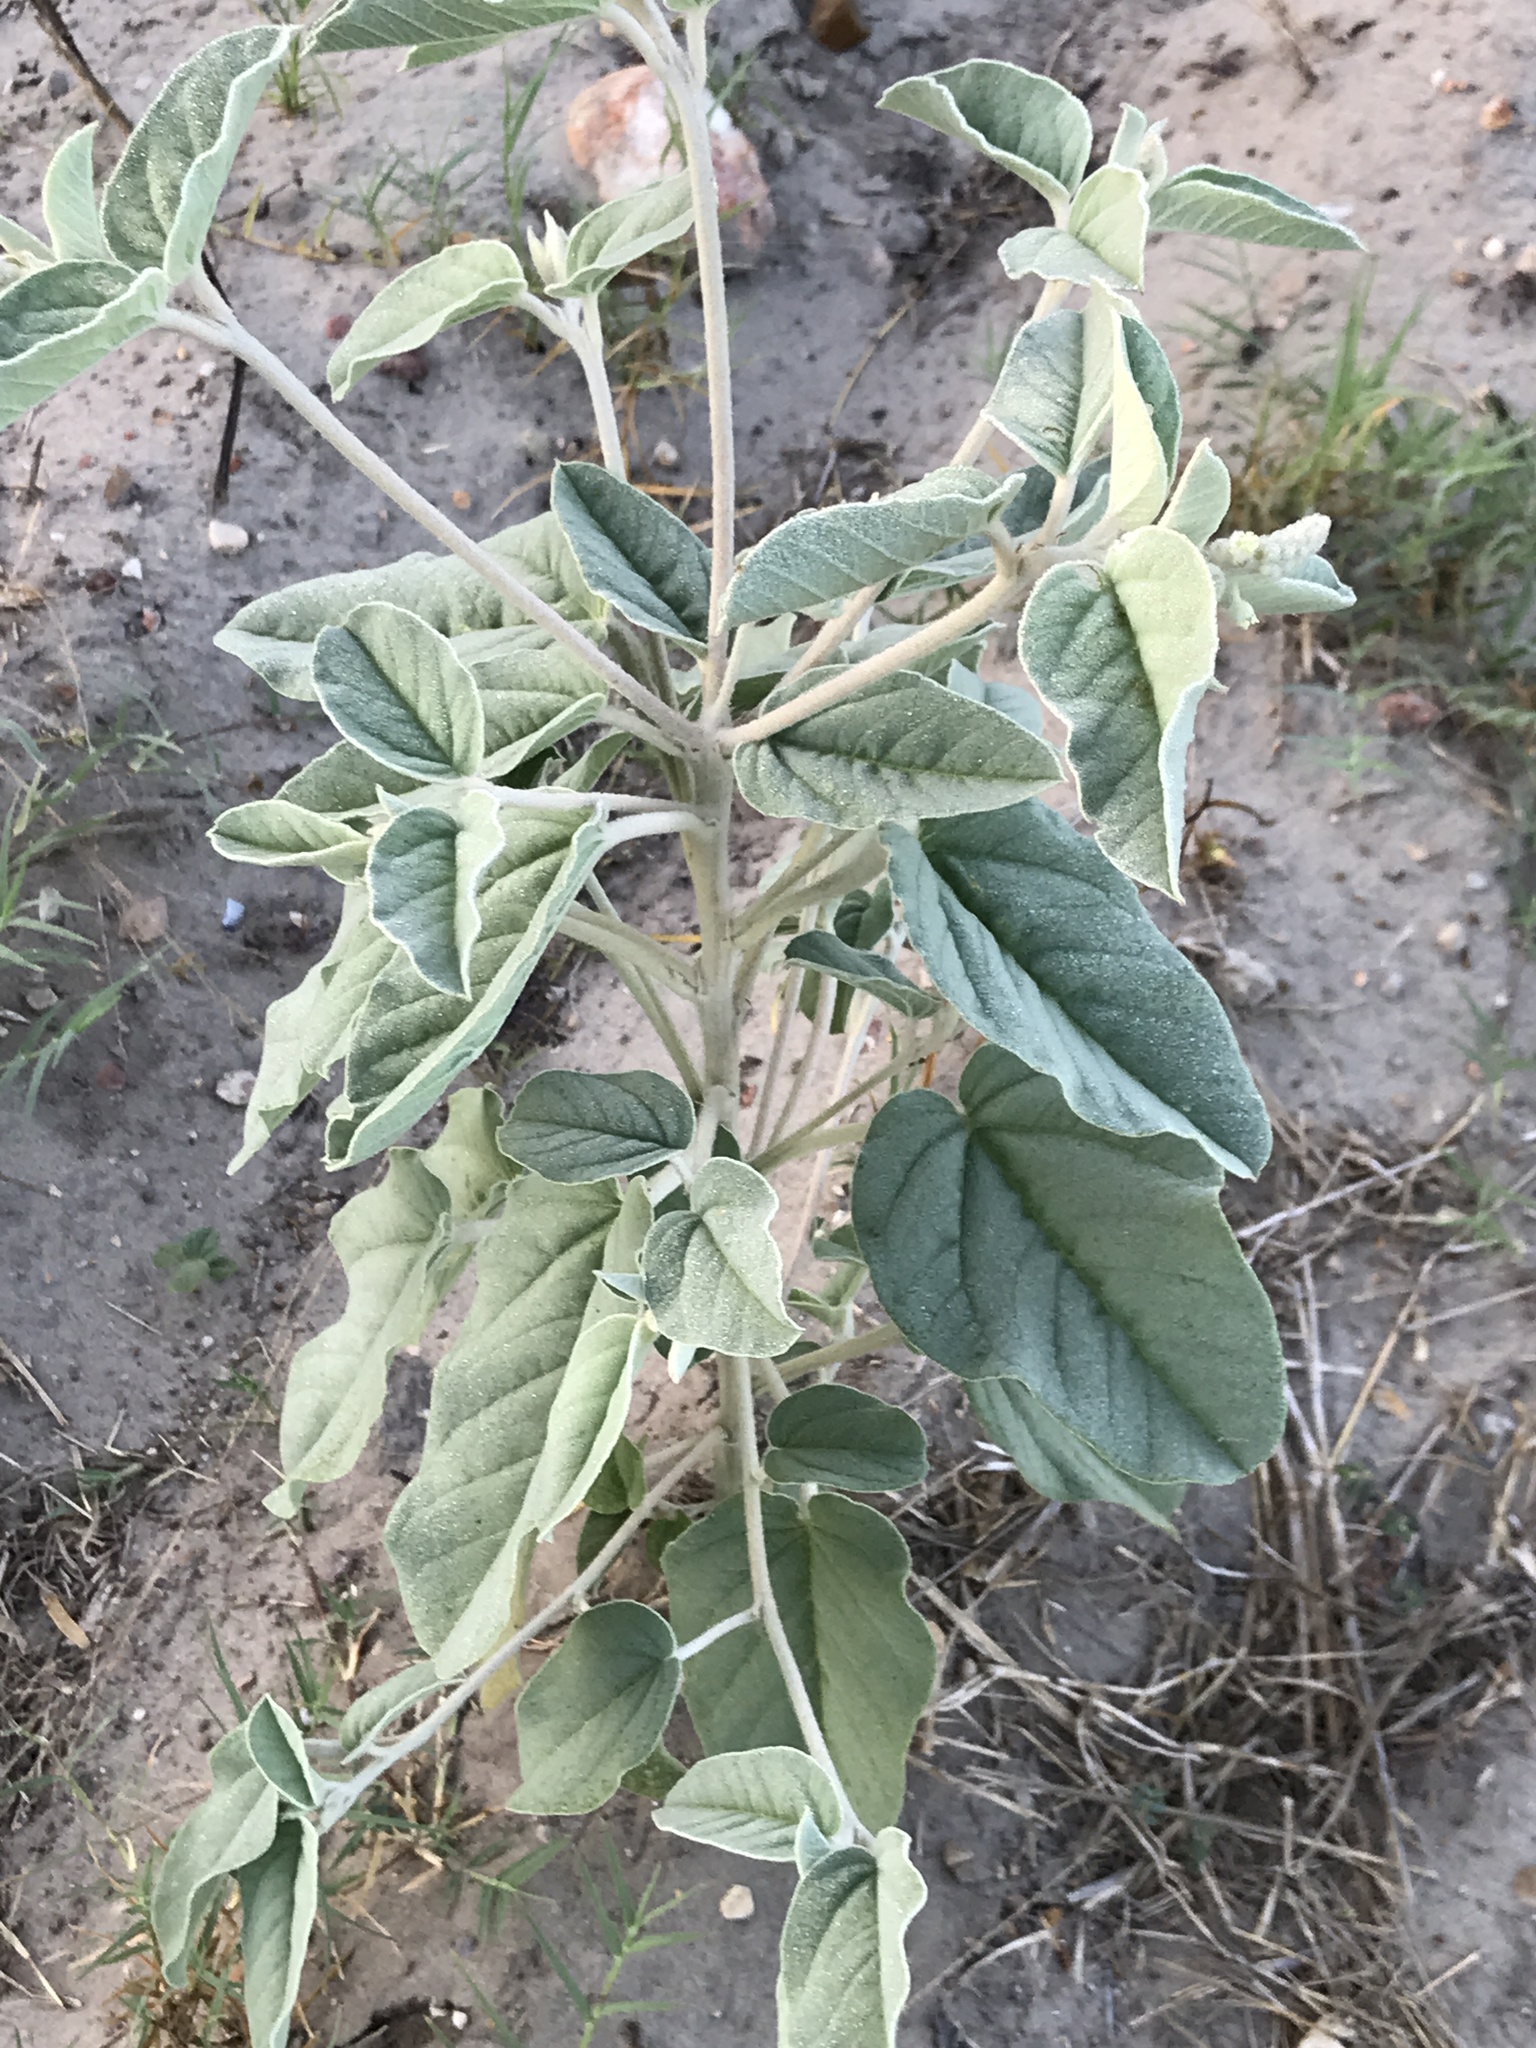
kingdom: Plantae
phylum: Tracheophyta
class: Magnoliopsida
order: Malpighiales
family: Euphorbiaceae
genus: Croton
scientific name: Croton heptalon
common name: Woolly croton
